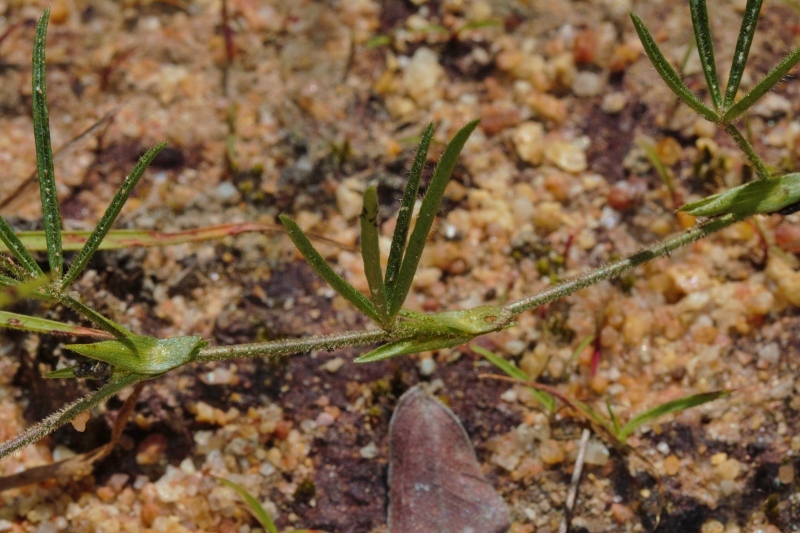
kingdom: Plantae
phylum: Tracheophyta
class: Magnoliopsida
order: Fabales
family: Fabaceae
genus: Zornia
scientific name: Zornia milneana
